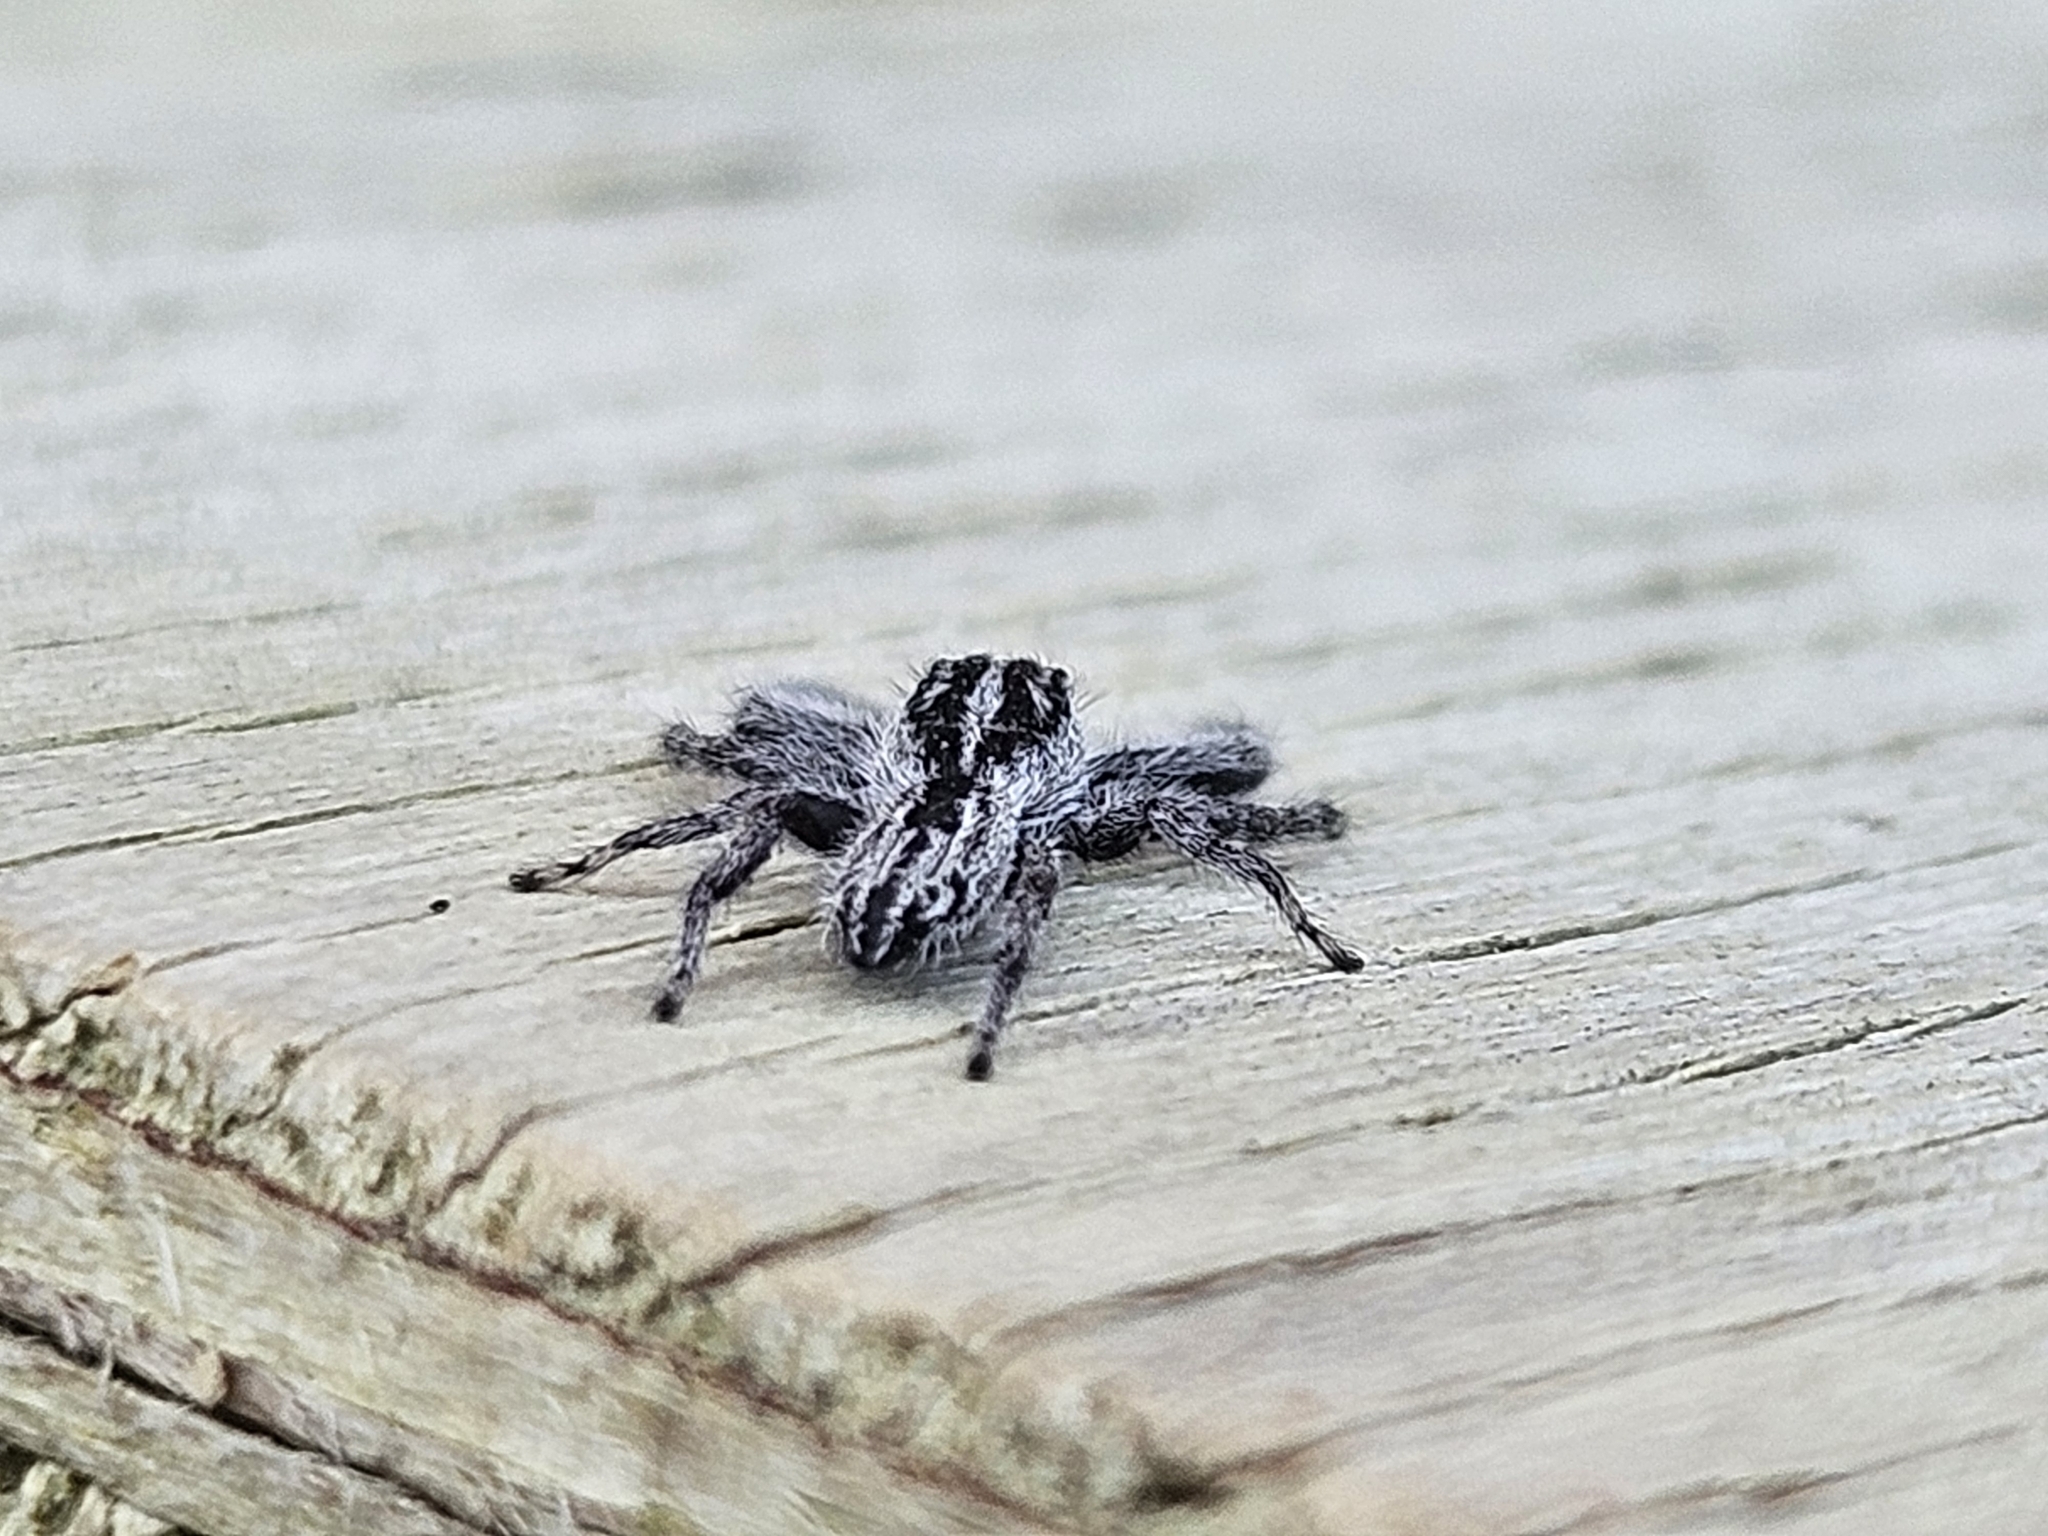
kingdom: Animalia
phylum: Arthropoda
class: Arachnida
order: Araneae
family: Salticidae
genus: Holoplatys
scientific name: Holoplatys apressus
